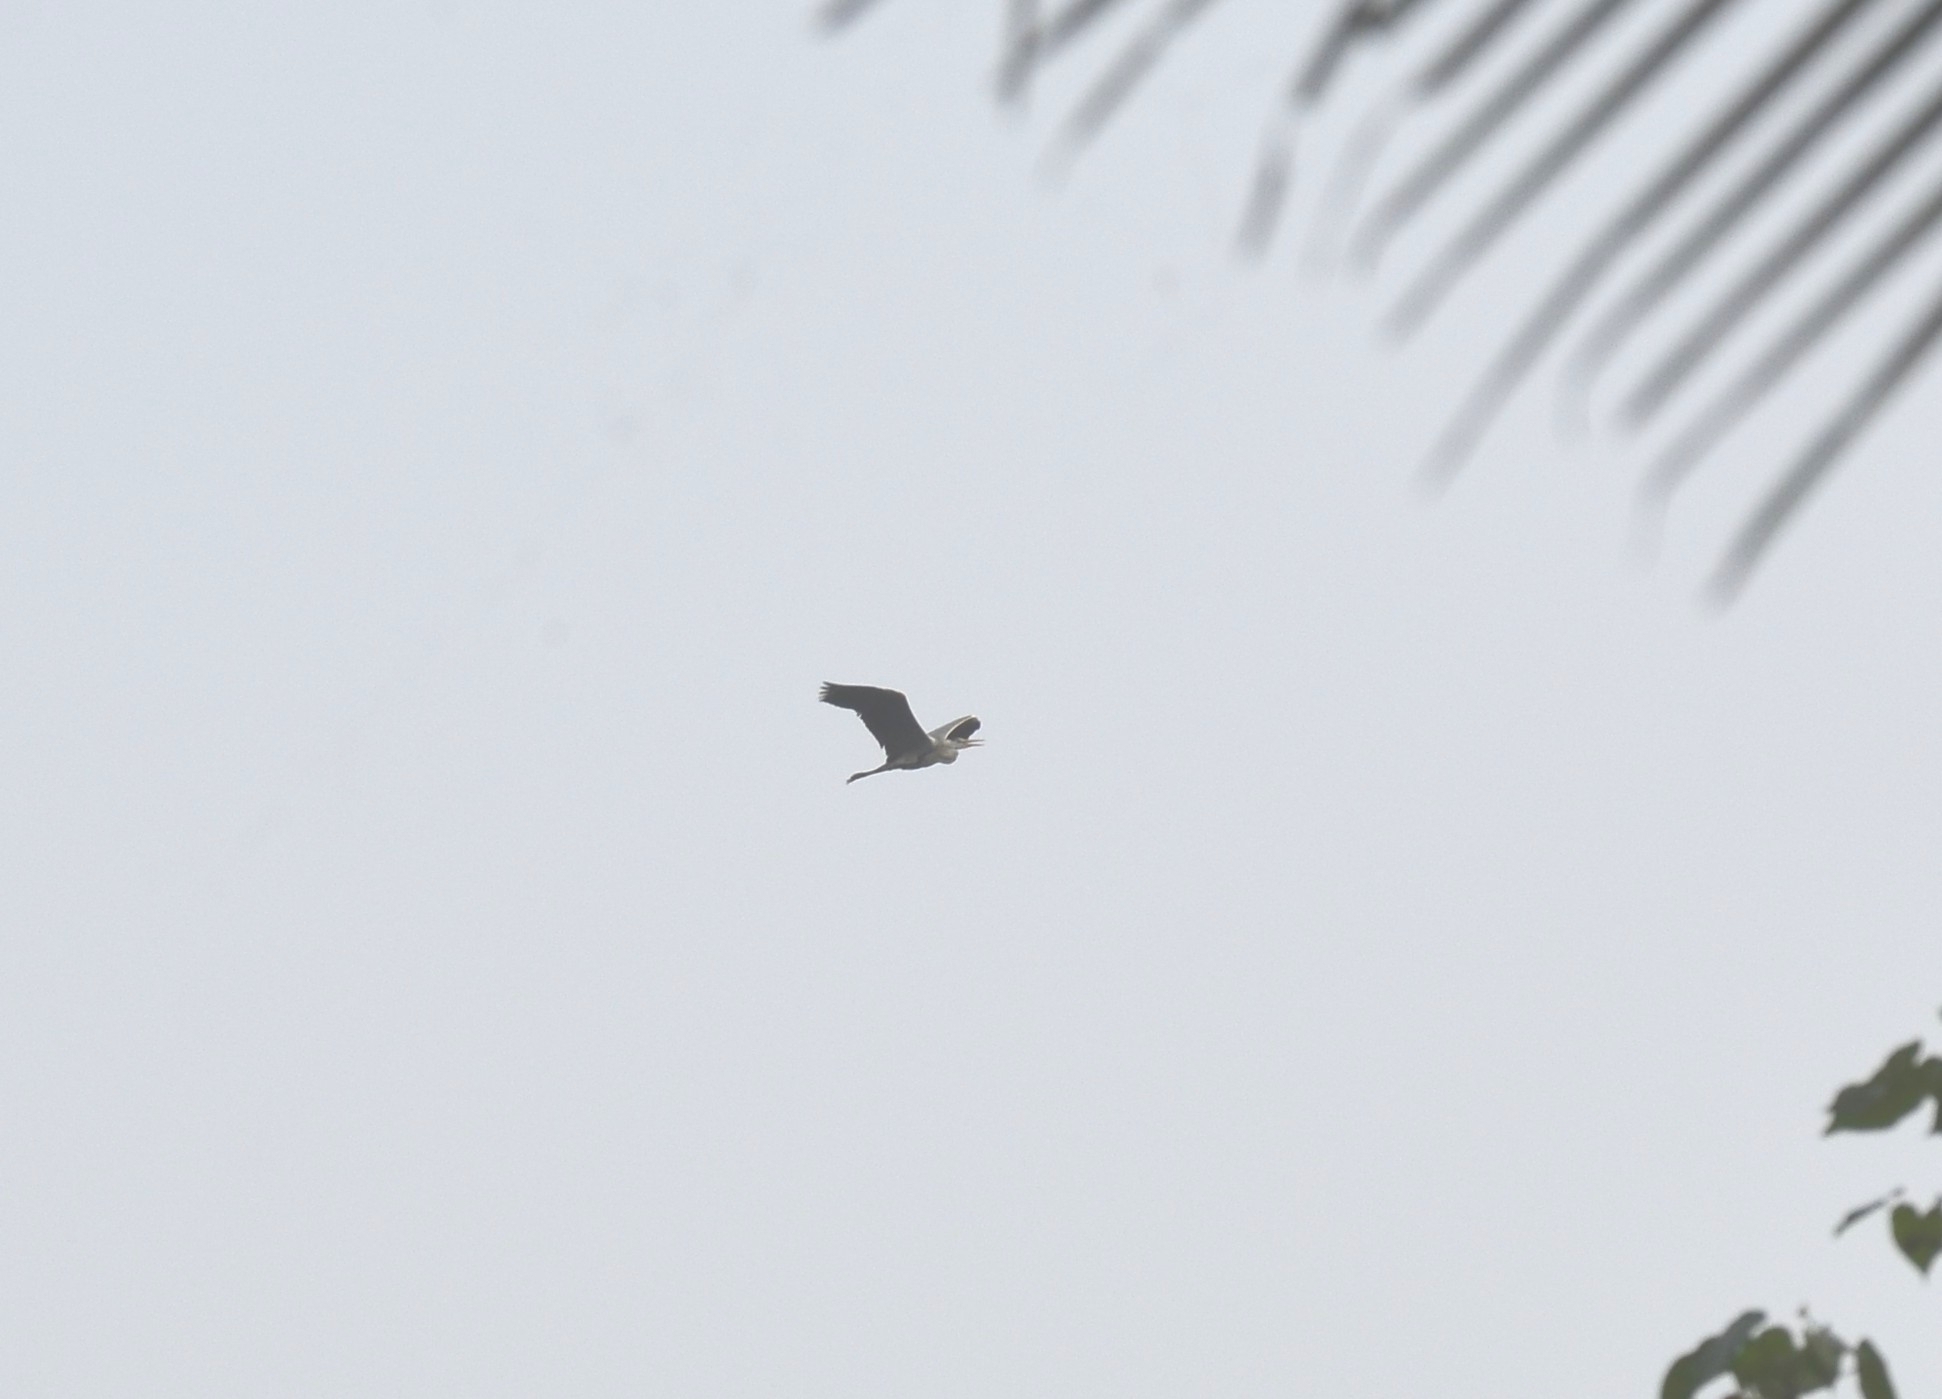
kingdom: Animalia
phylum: Chordata
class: Aves
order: Pelecaniformes
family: Ardeidae
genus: Ardea
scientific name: Ardea cinerea
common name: Grey heron
